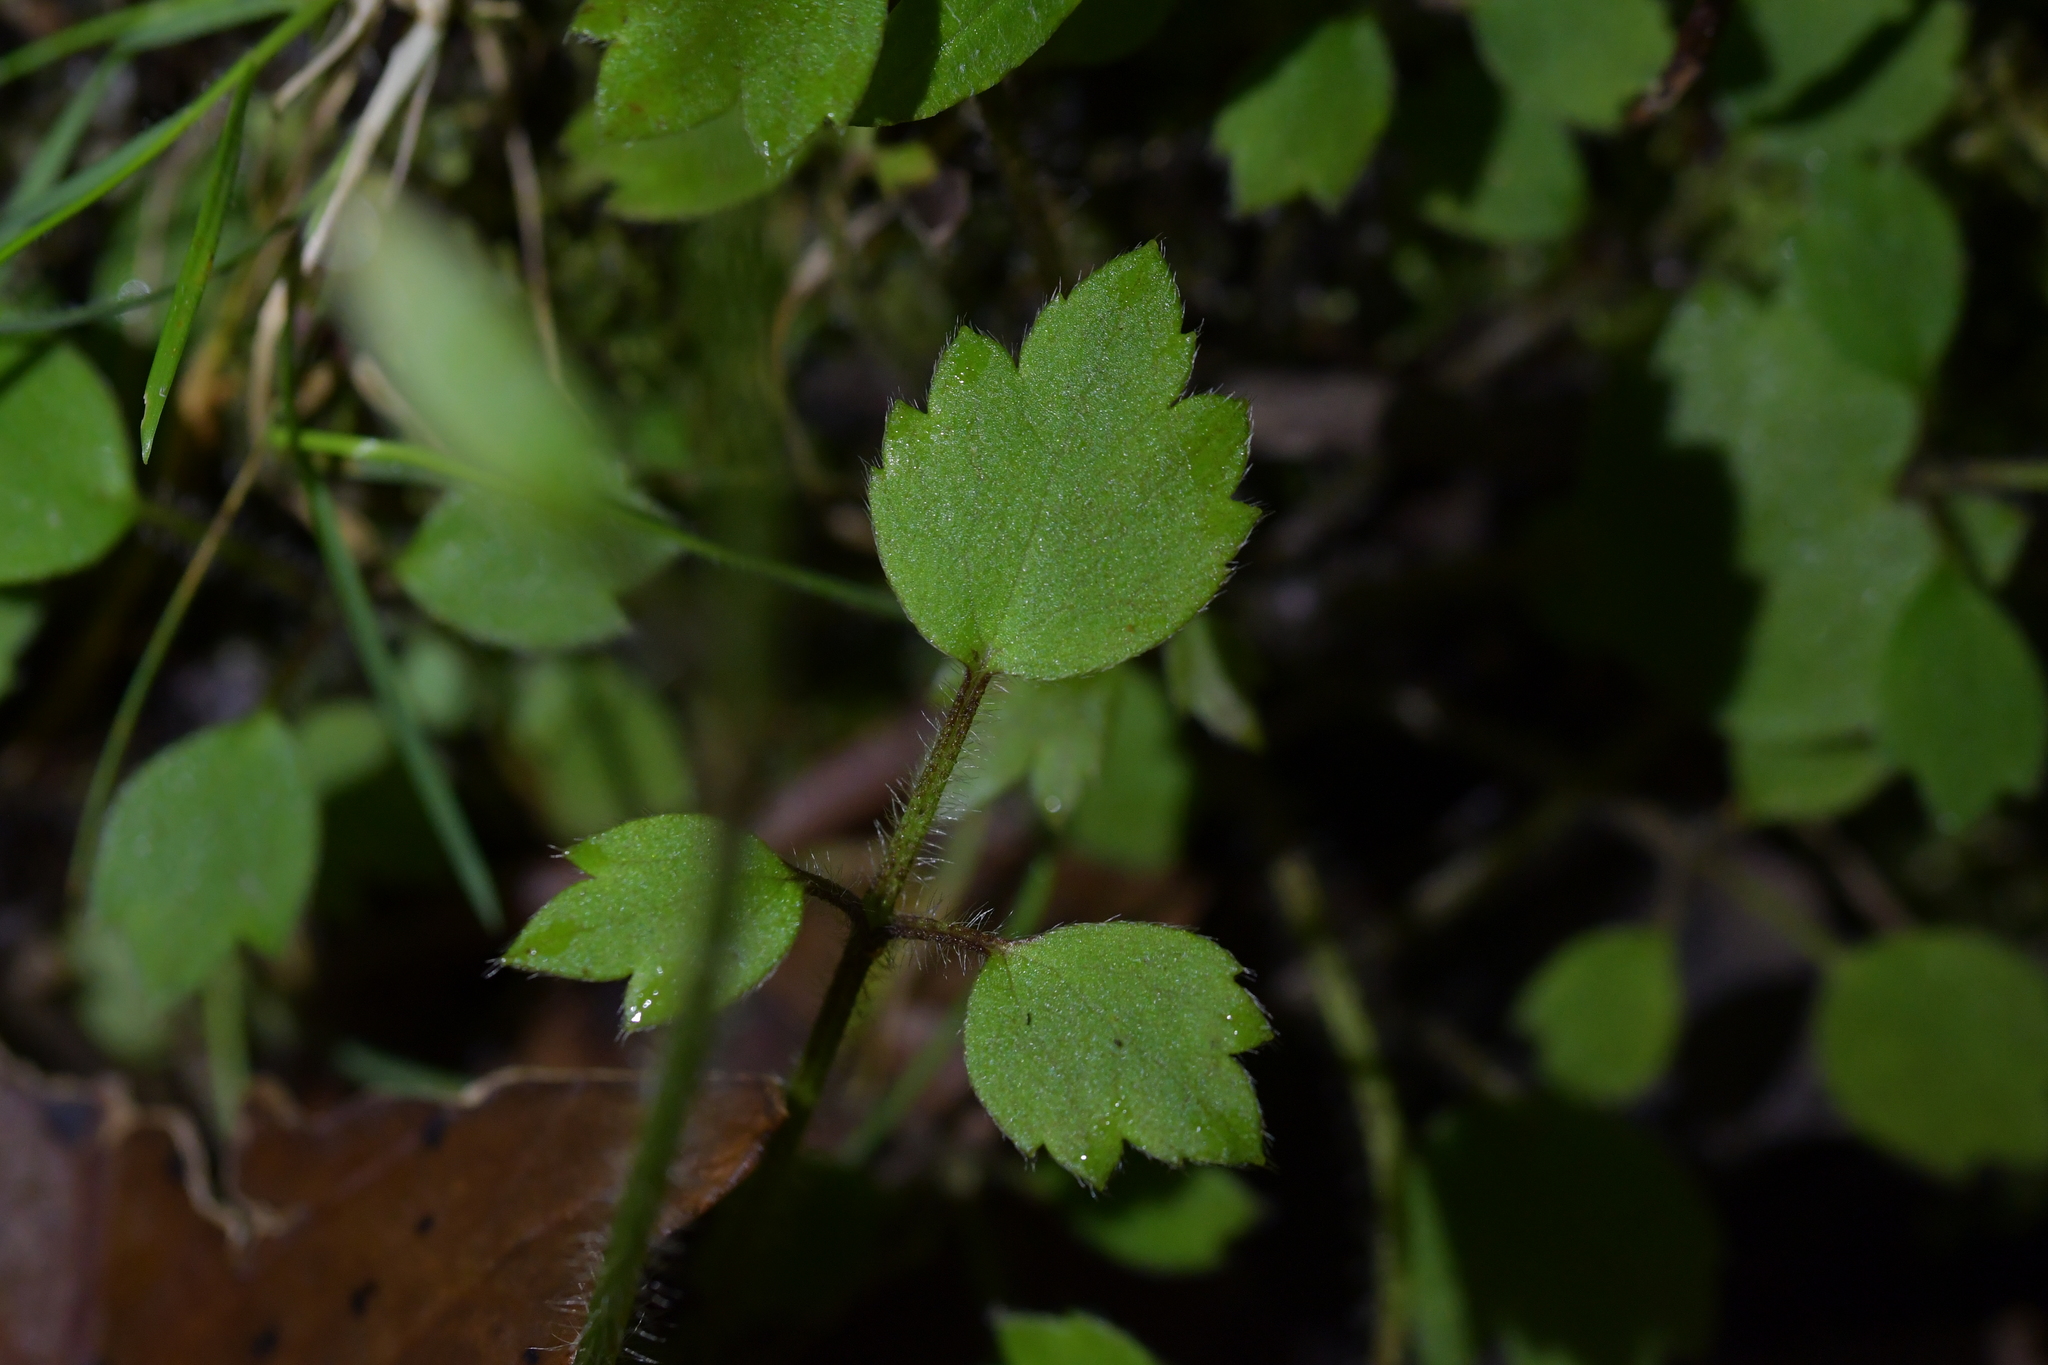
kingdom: Plantae
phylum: Tracheophyta
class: Magnoliopsida
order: Ranunculales
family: Ranunculaceae
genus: Ranunculus
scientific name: Ranunculus reflexus
